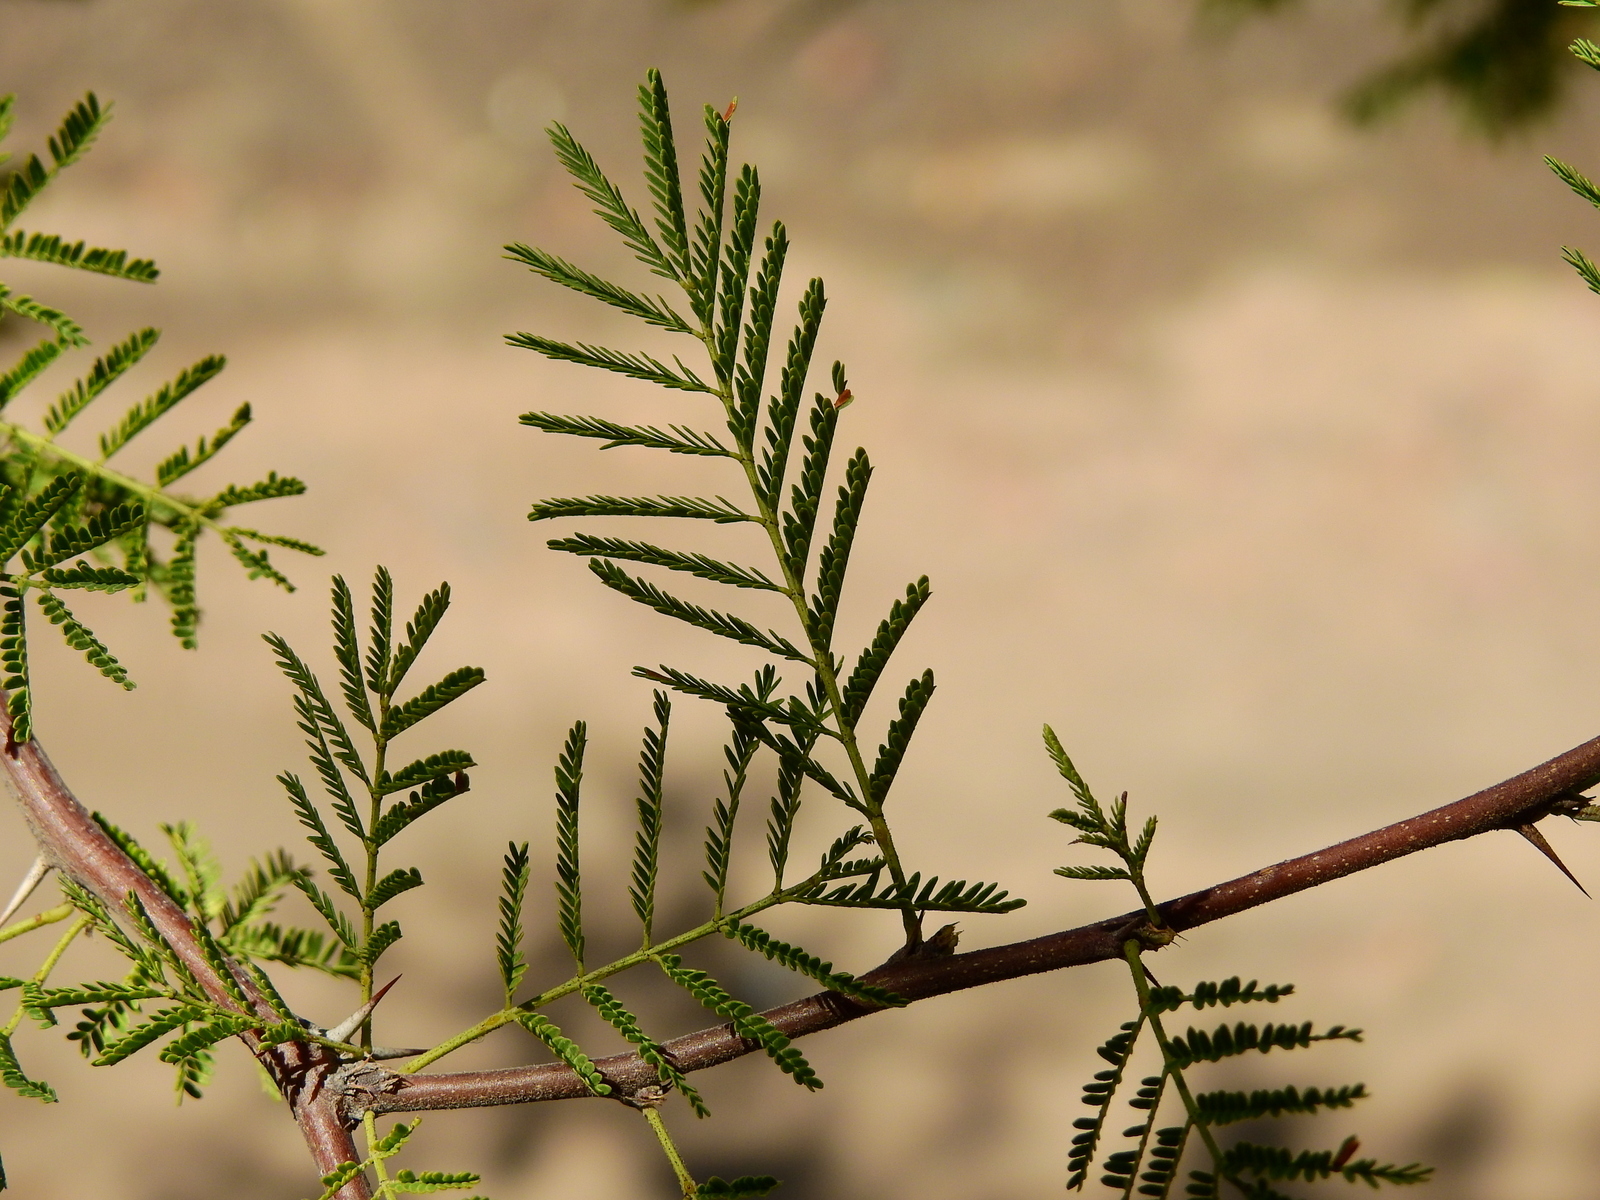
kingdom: Plantae
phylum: Tracheophyta
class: Magnoliopsida
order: Fabales
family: Fabaceae
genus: Vachellia
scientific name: Vachellia caven
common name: Roman cassie
